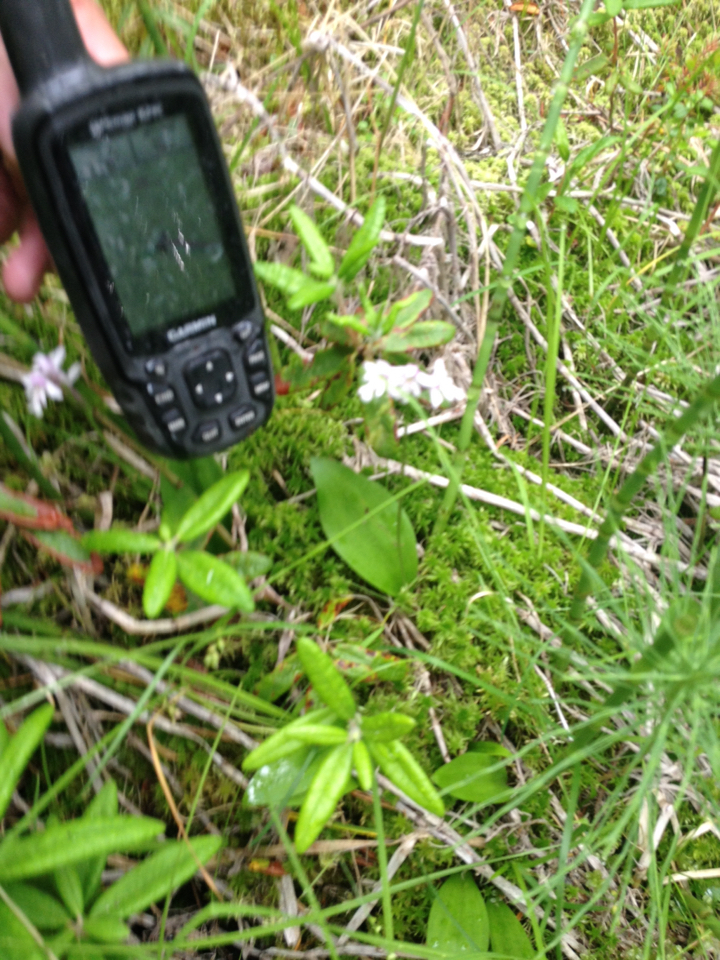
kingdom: Plantae
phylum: Tracheophyta
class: Liliopsida
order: Asparagales
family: Orchidaceae
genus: Galearis
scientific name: Galearis rotundifolia
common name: One-leaved orchis
